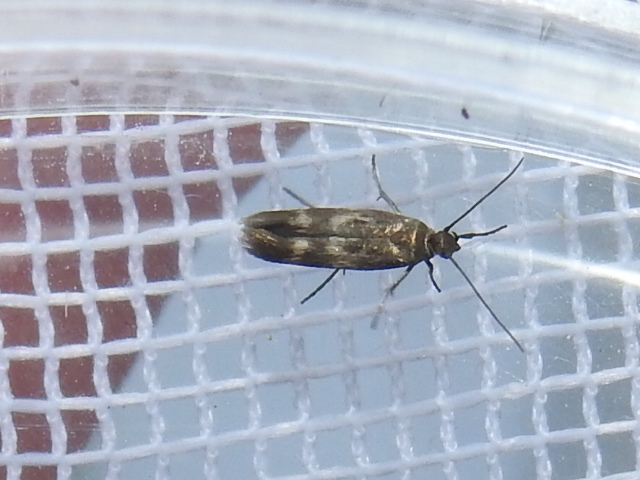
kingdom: Animalia
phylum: Arthropoda
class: Insecta
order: Lepidoptera
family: Scythrididae
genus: Scythris
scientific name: Scythris trivinctella
